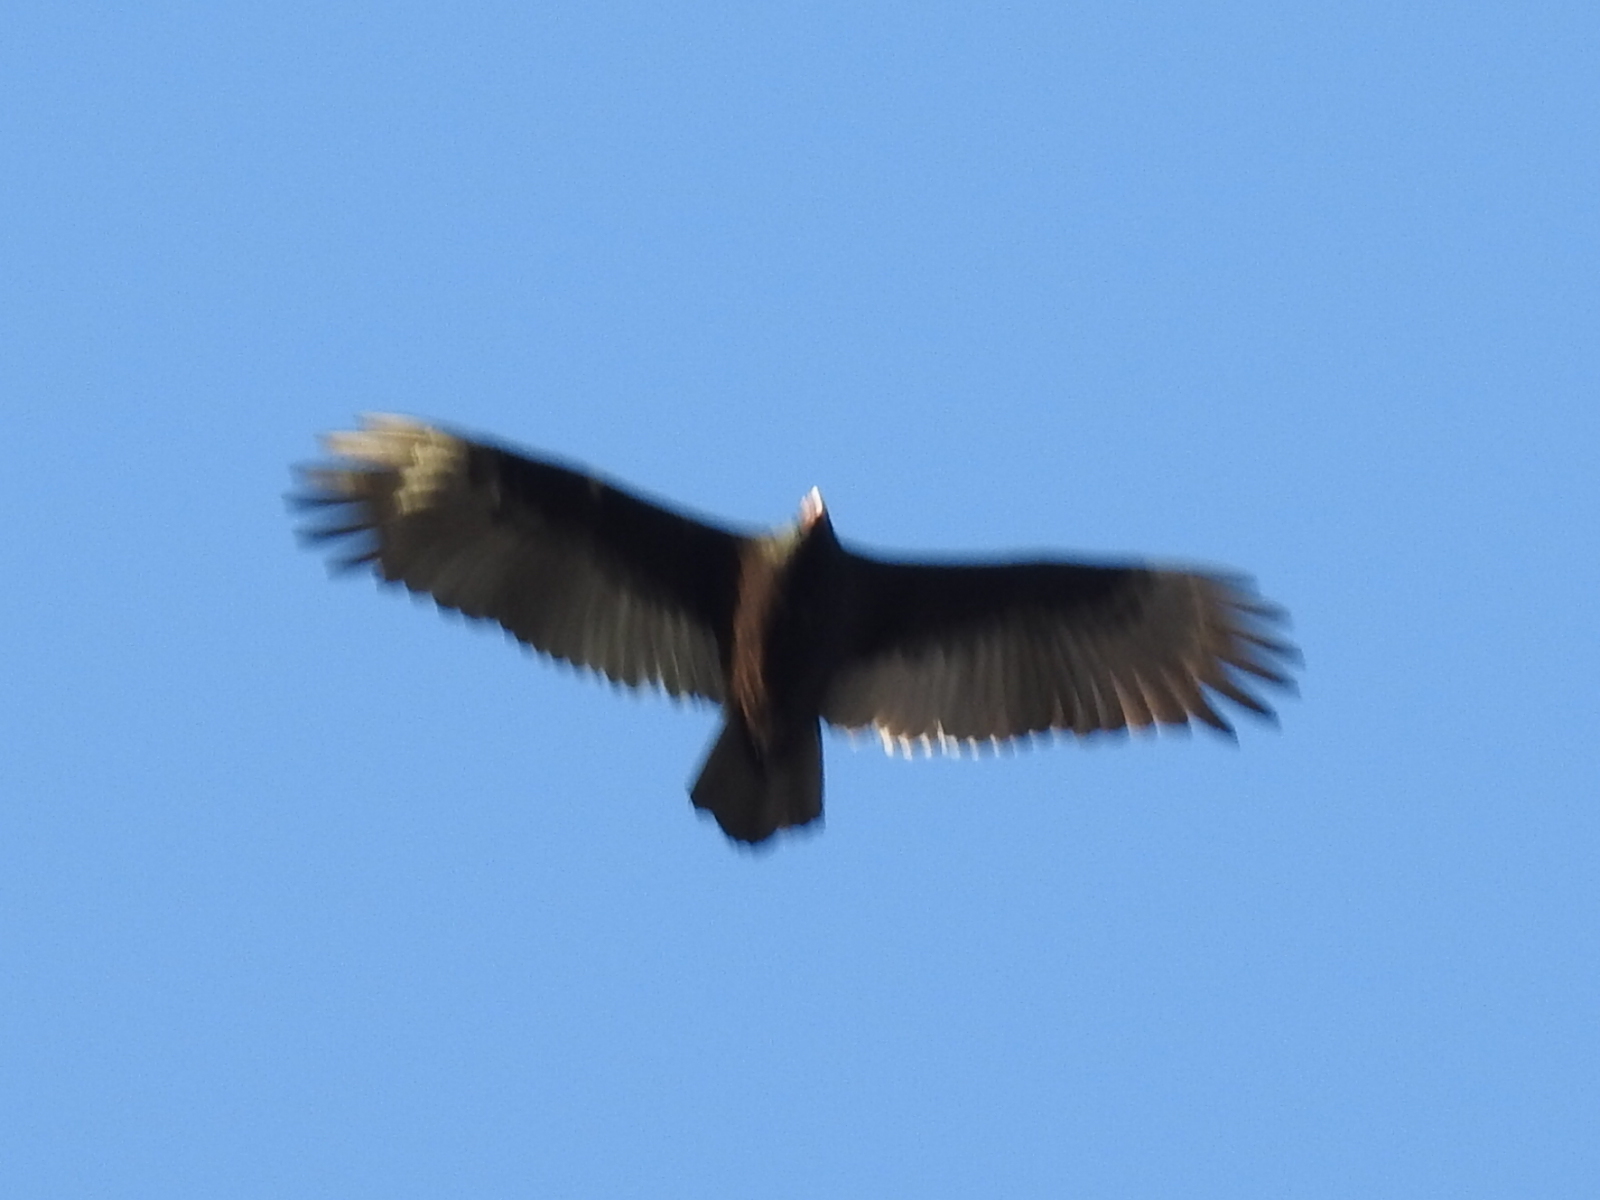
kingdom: Animalia
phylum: Chordata
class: Aves
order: Accipitriformes
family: Cathartidae
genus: Cathartes
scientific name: Cathartes aura
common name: Turkey vulture
